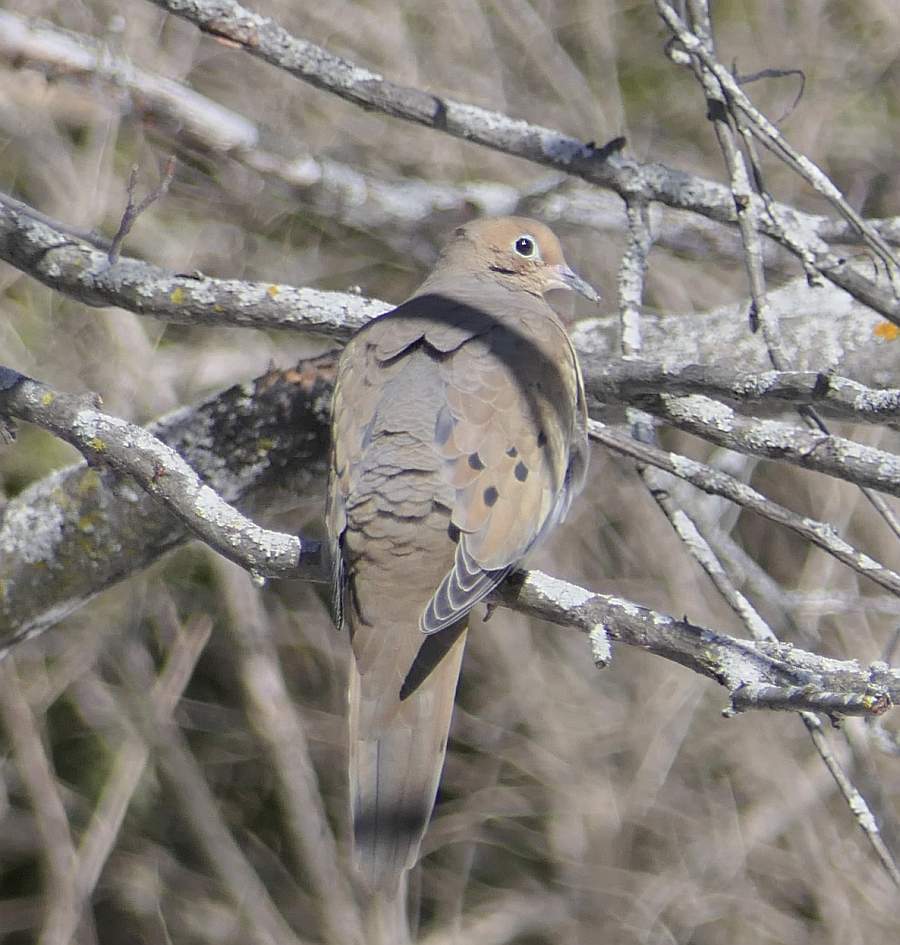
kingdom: Animalia
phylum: Chordata
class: Aves
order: Columbiformes
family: Columbidae
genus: Zenaida
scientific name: Zenaida macroura
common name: Mourning dove
